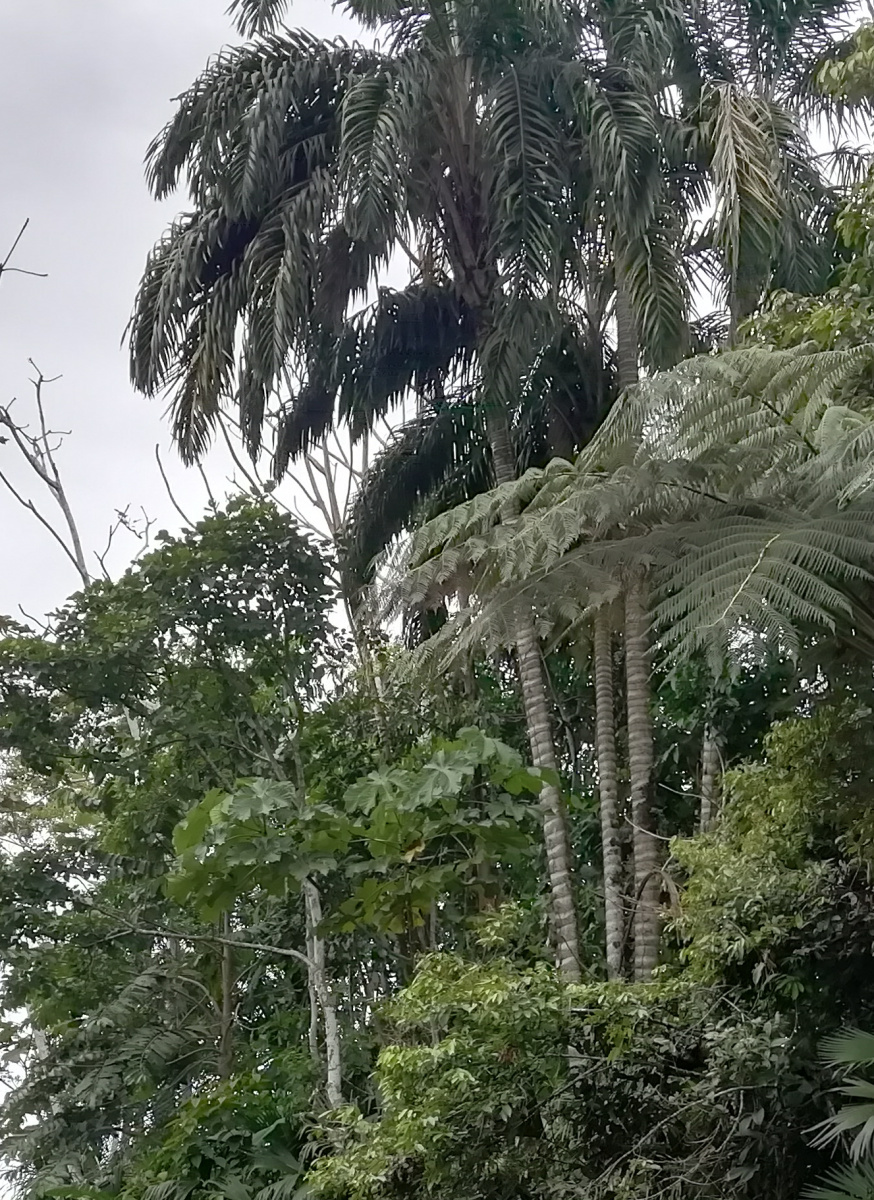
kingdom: Plantae
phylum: Tracheophyta
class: Liliopsida
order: Arecales
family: Arecaceae
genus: Bactris
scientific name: Bactris gasipaes
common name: Peach palm
